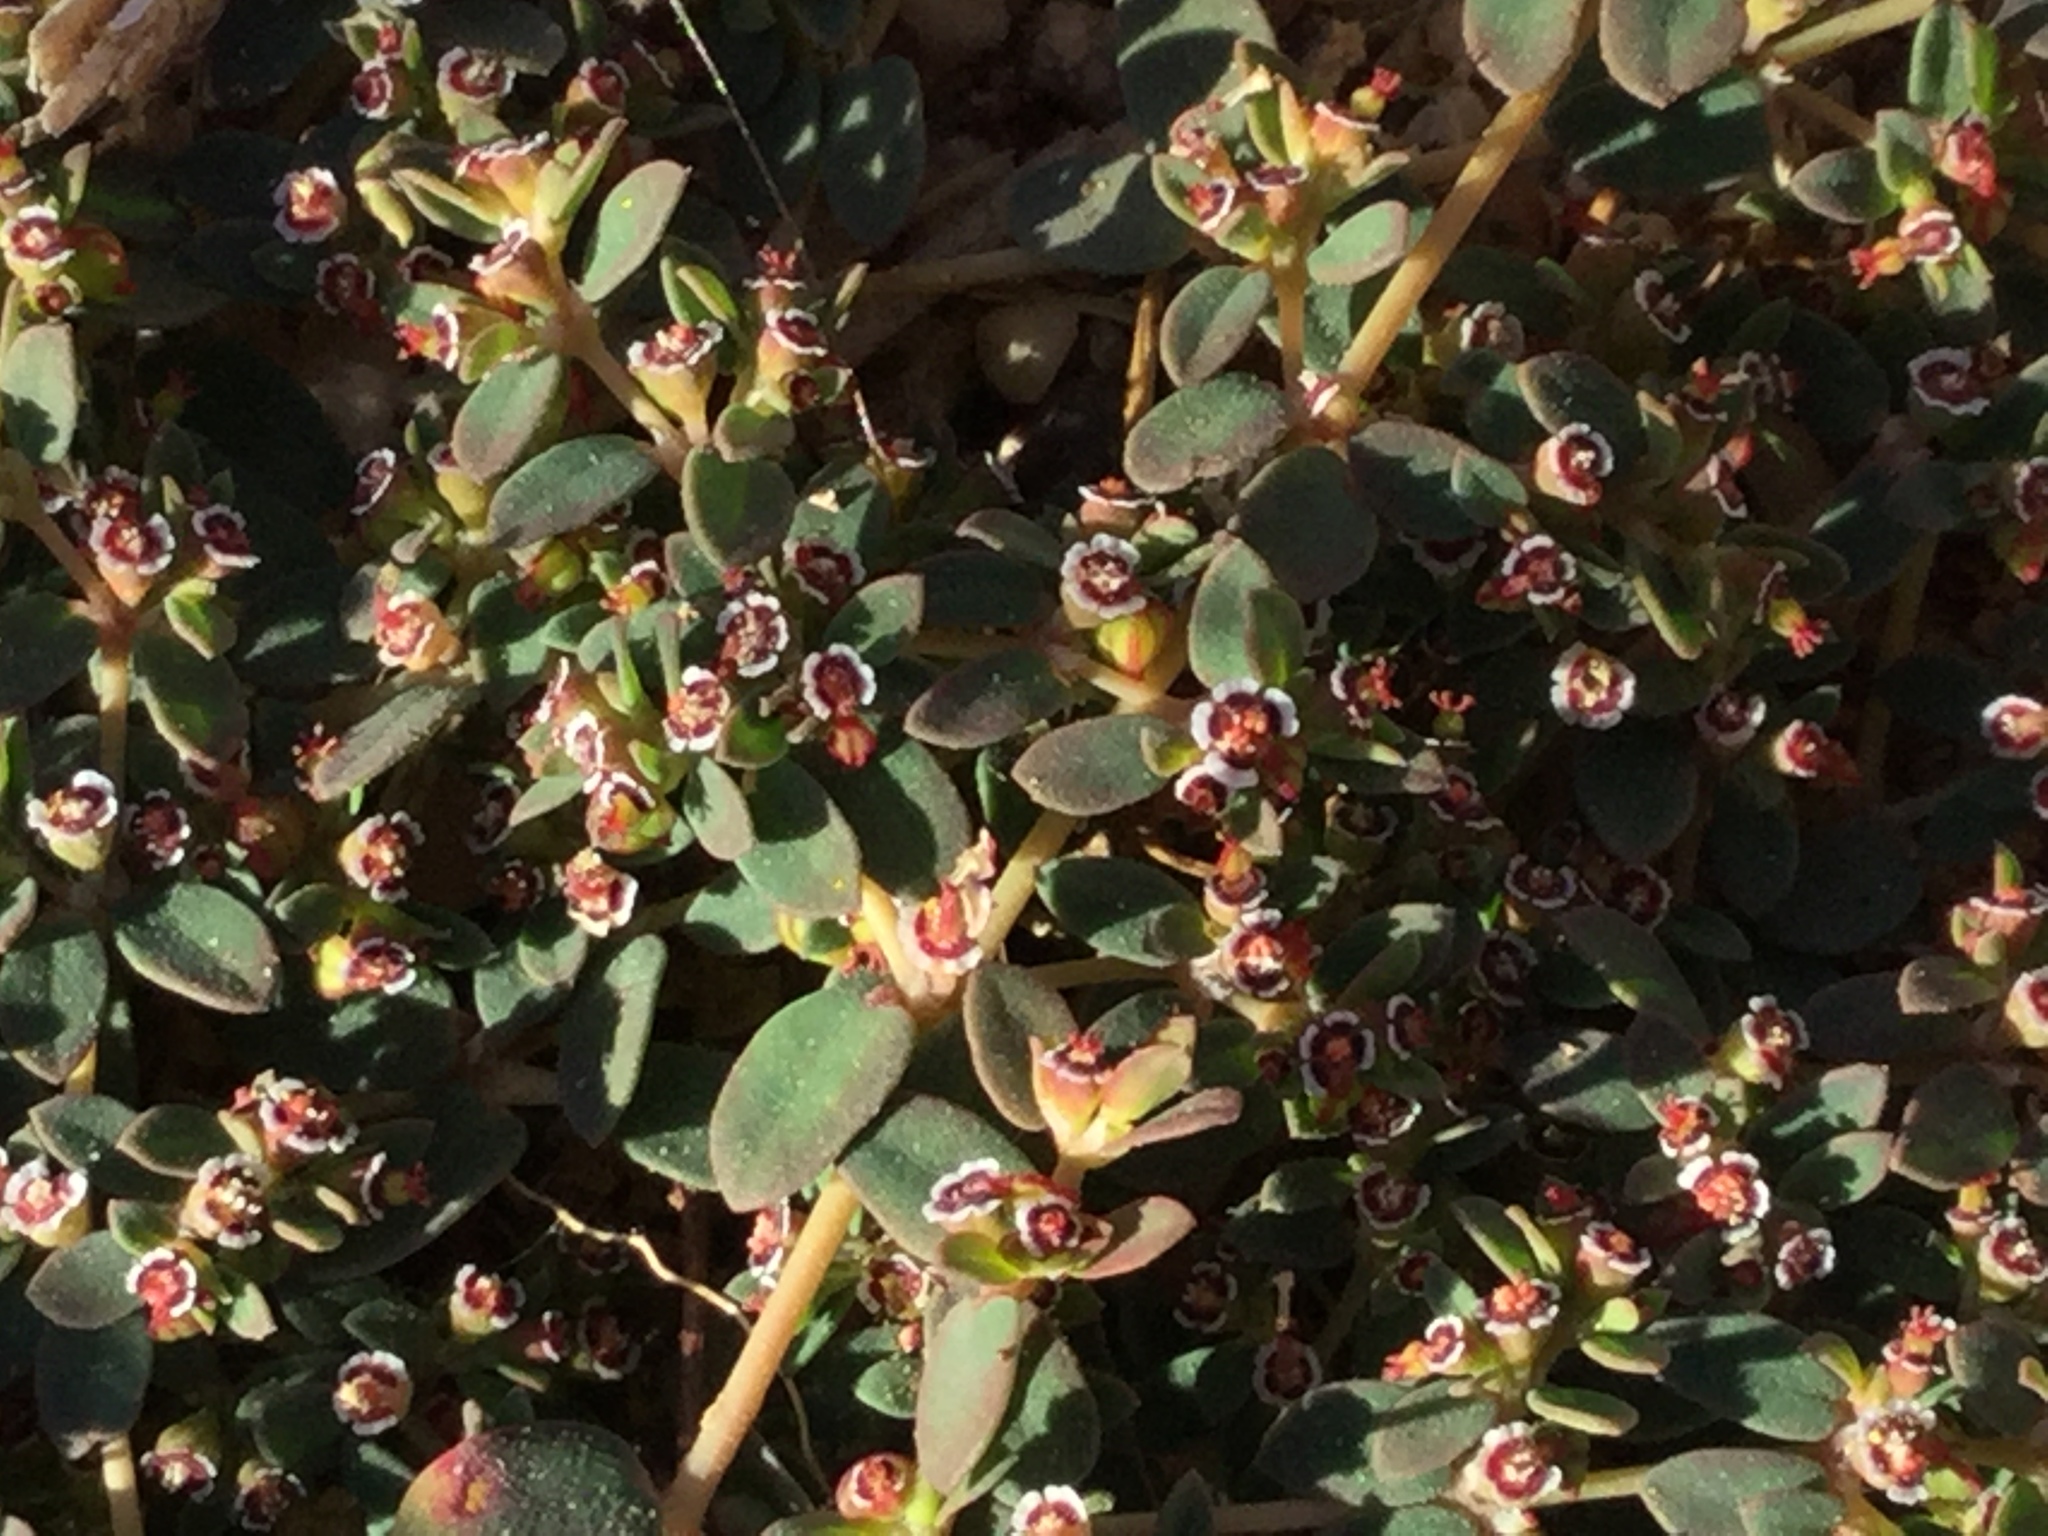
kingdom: Plantae
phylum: Tracheophyta
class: Magnoliopsida
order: Malpighiales
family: Euphorbiaceae
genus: Euphorbia
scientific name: Euphorbia polycarpa
